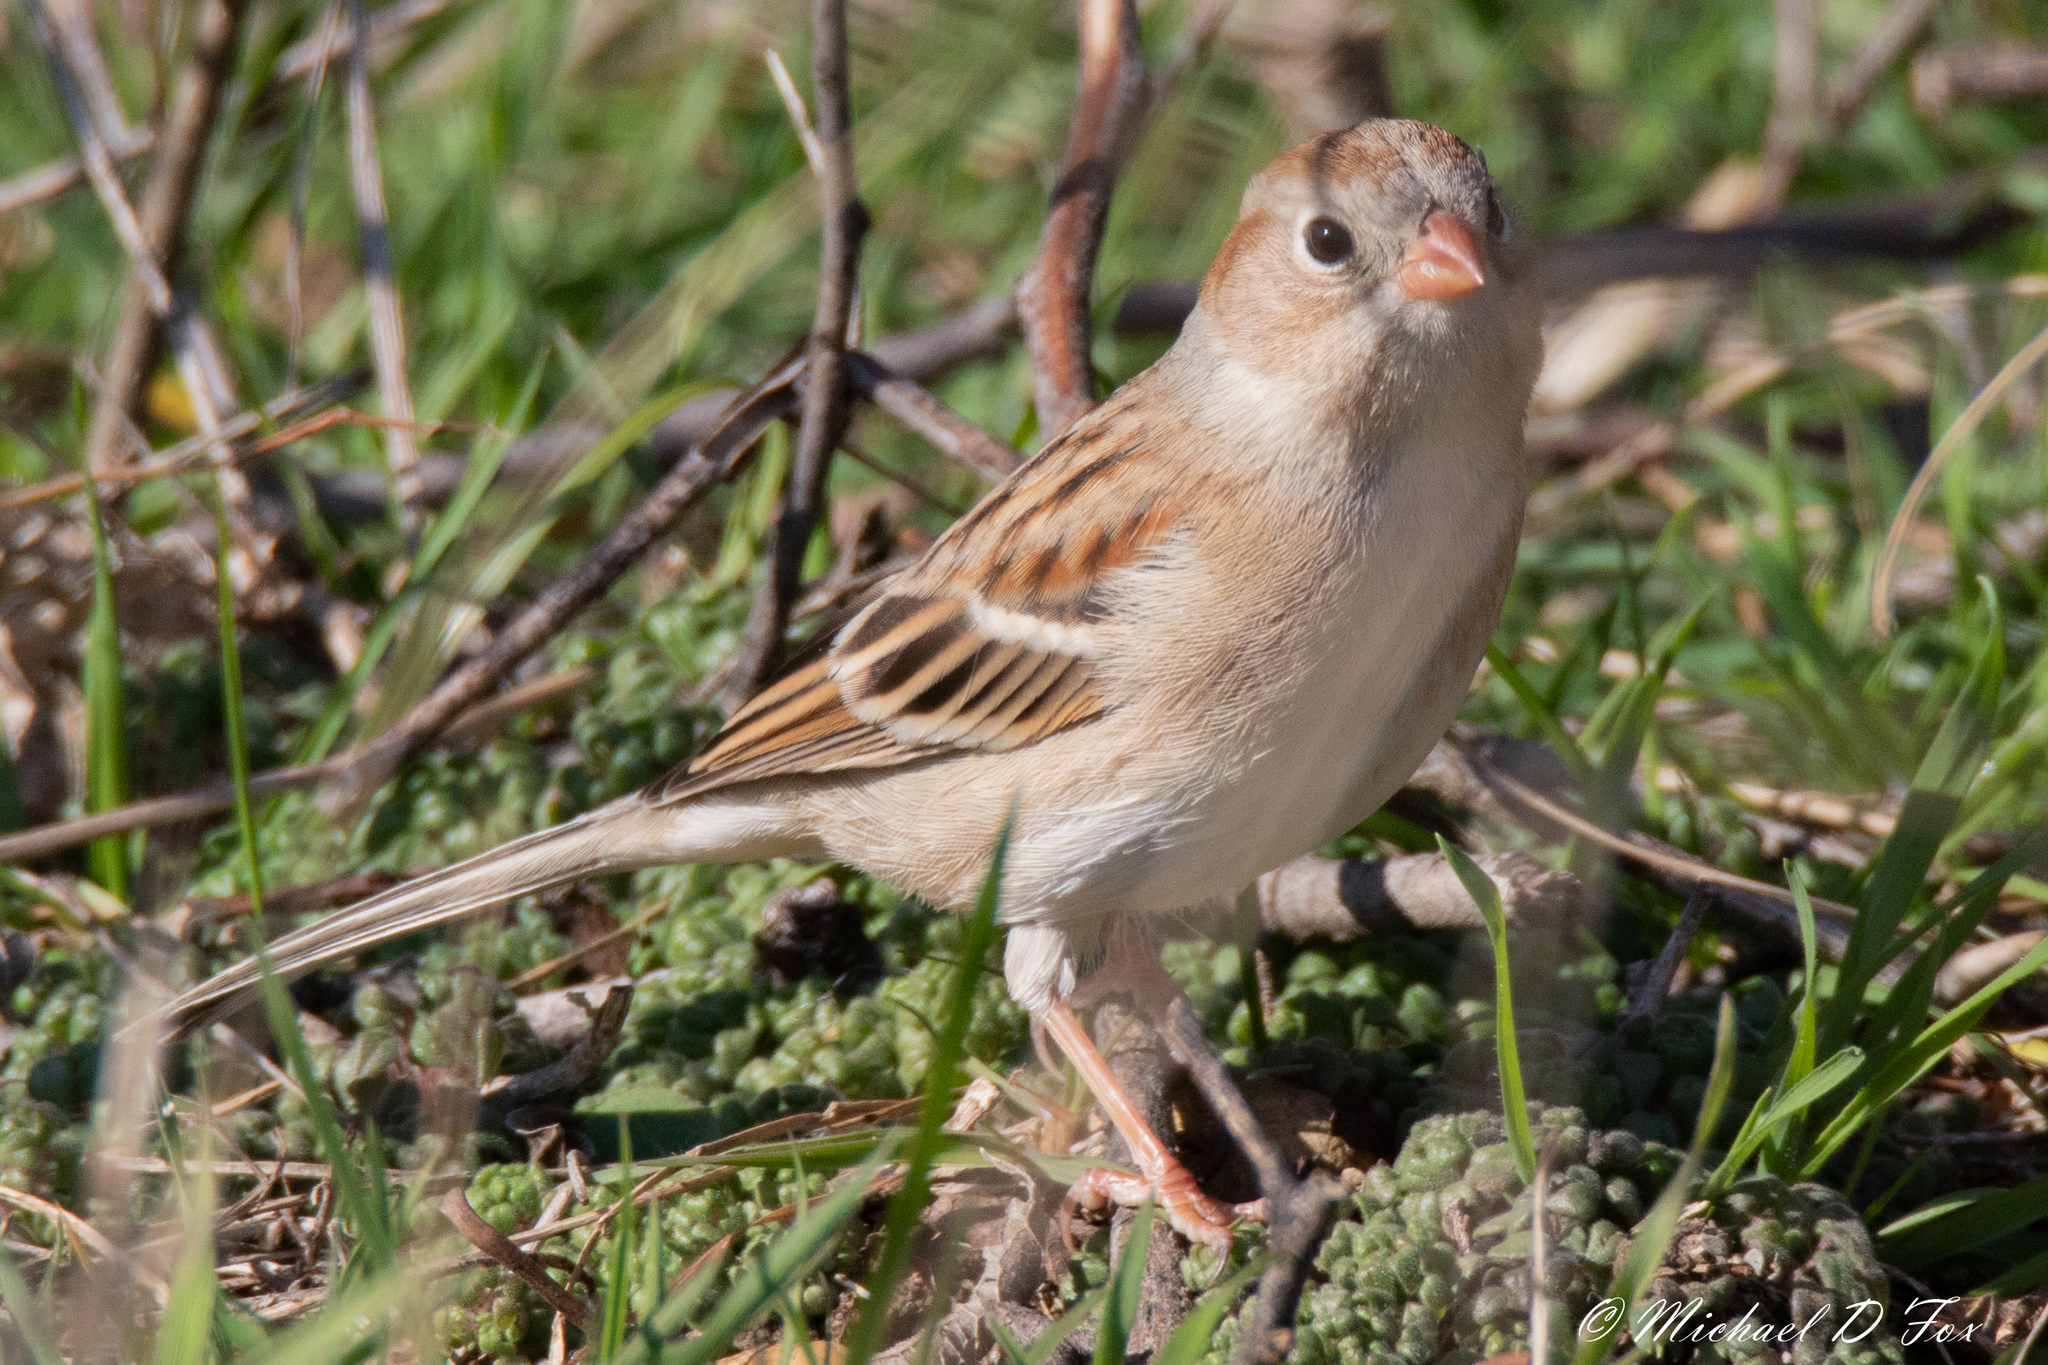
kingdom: Animalia
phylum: Chordata
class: Aves
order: Passeriformes
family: Passerellidae
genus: Spizella
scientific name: Spizella pusilla
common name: Field sparrow
